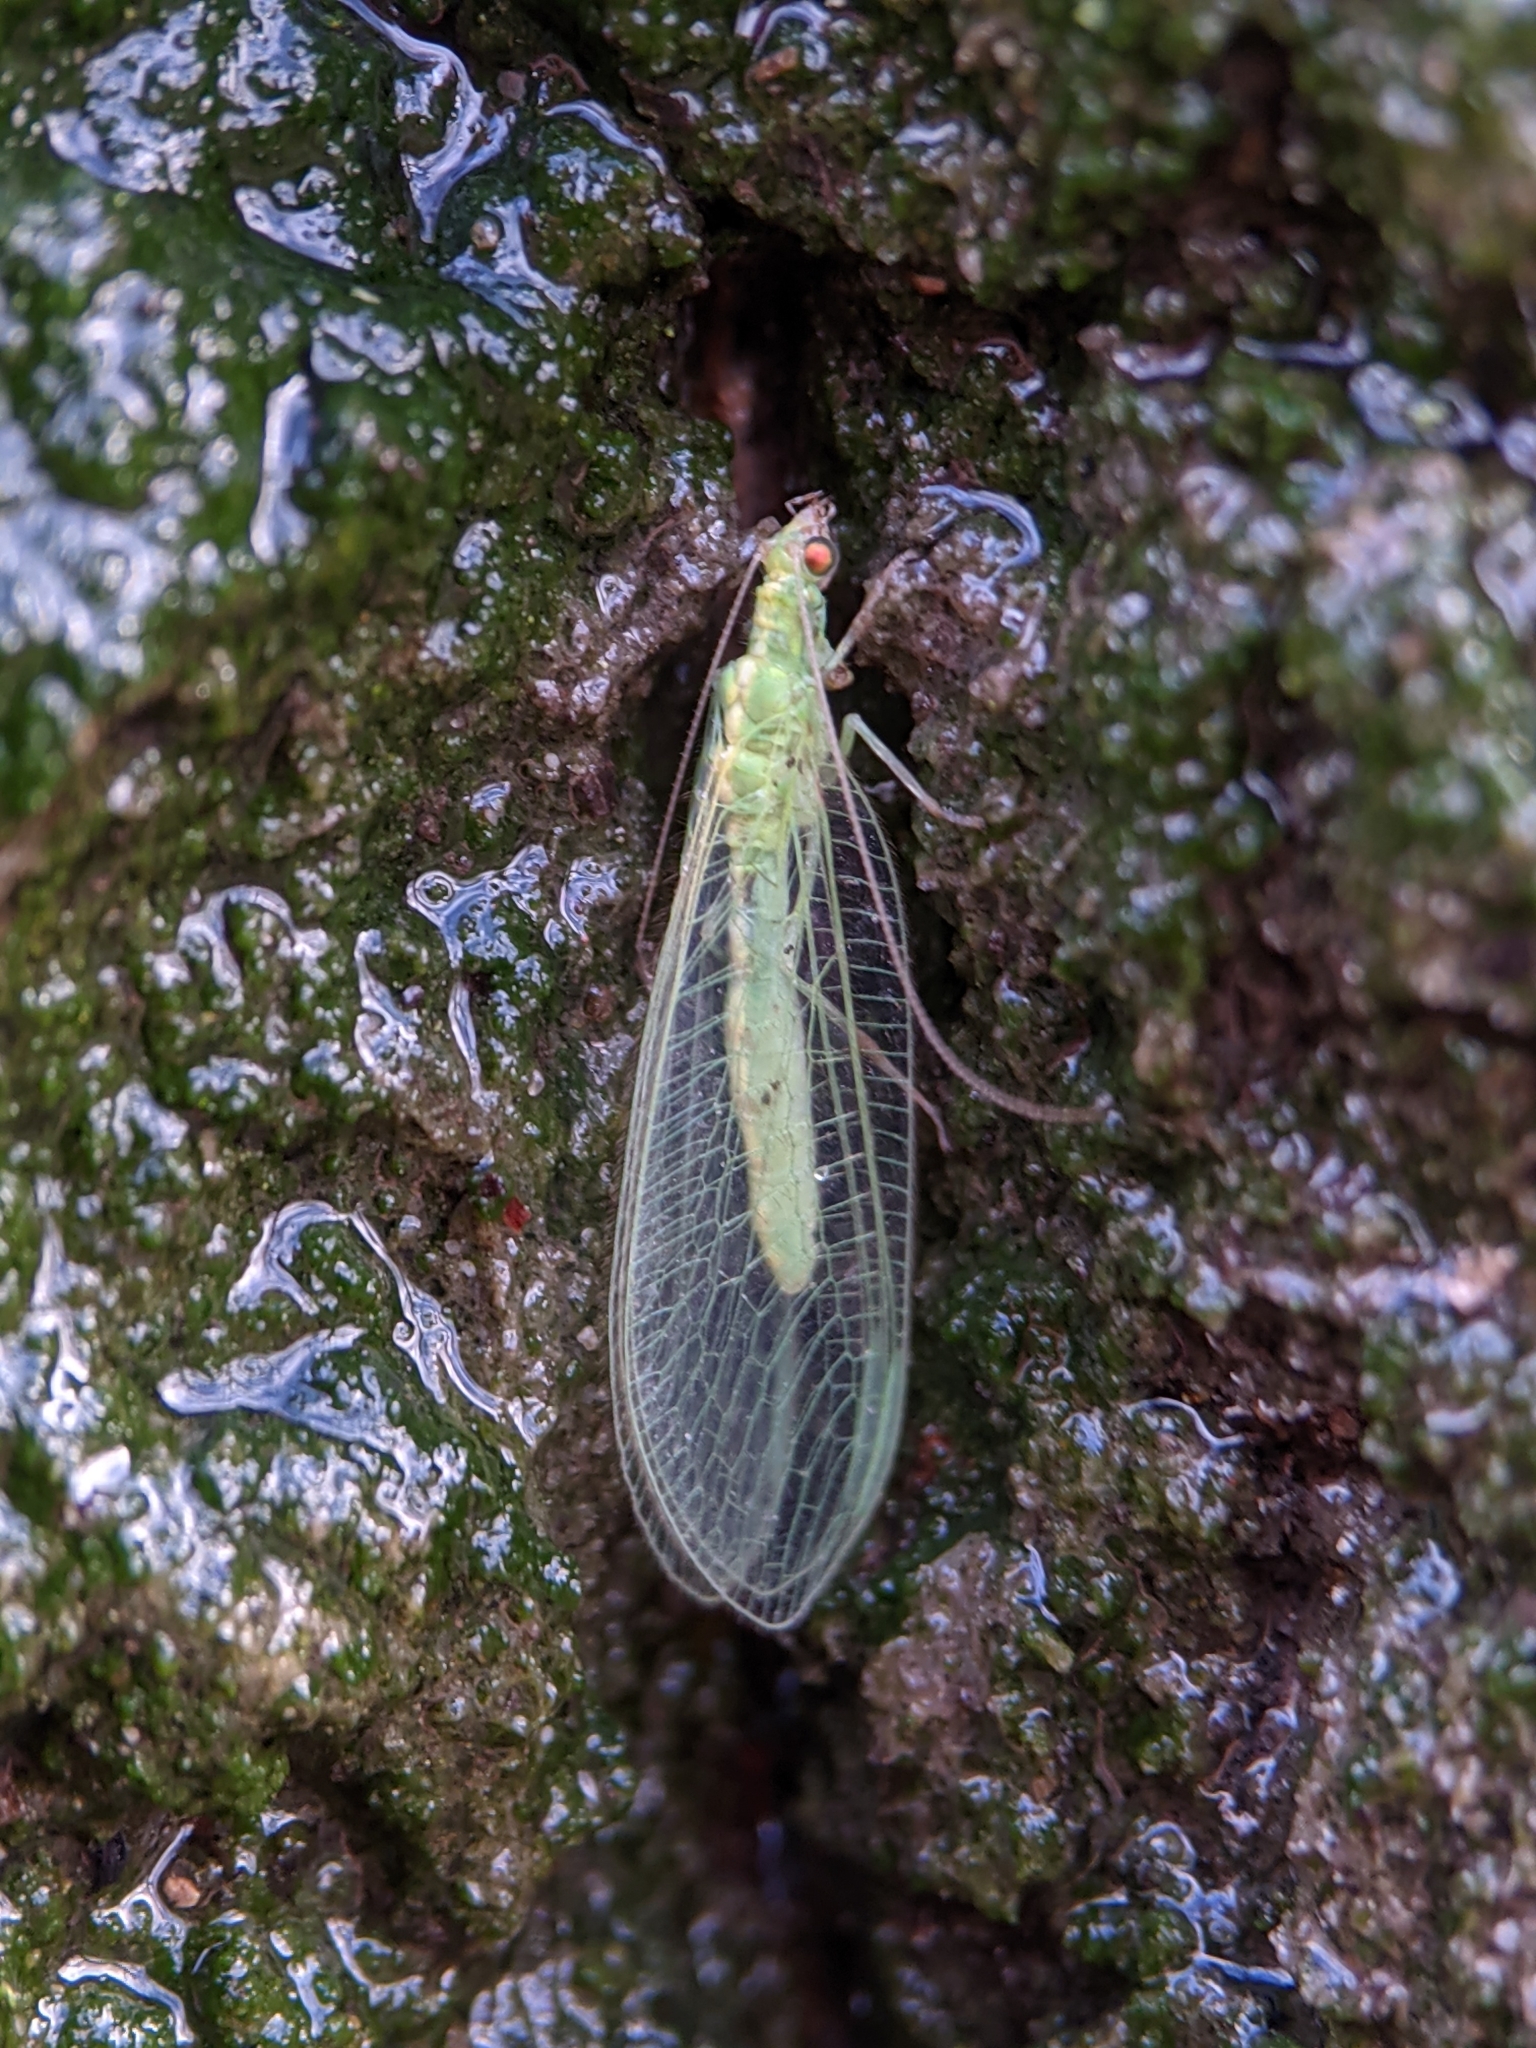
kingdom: Animalia
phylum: Arthropoda
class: Insecta
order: Neuroptera
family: Chrysopidae
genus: Chrysoperla
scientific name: Chrysoperla
